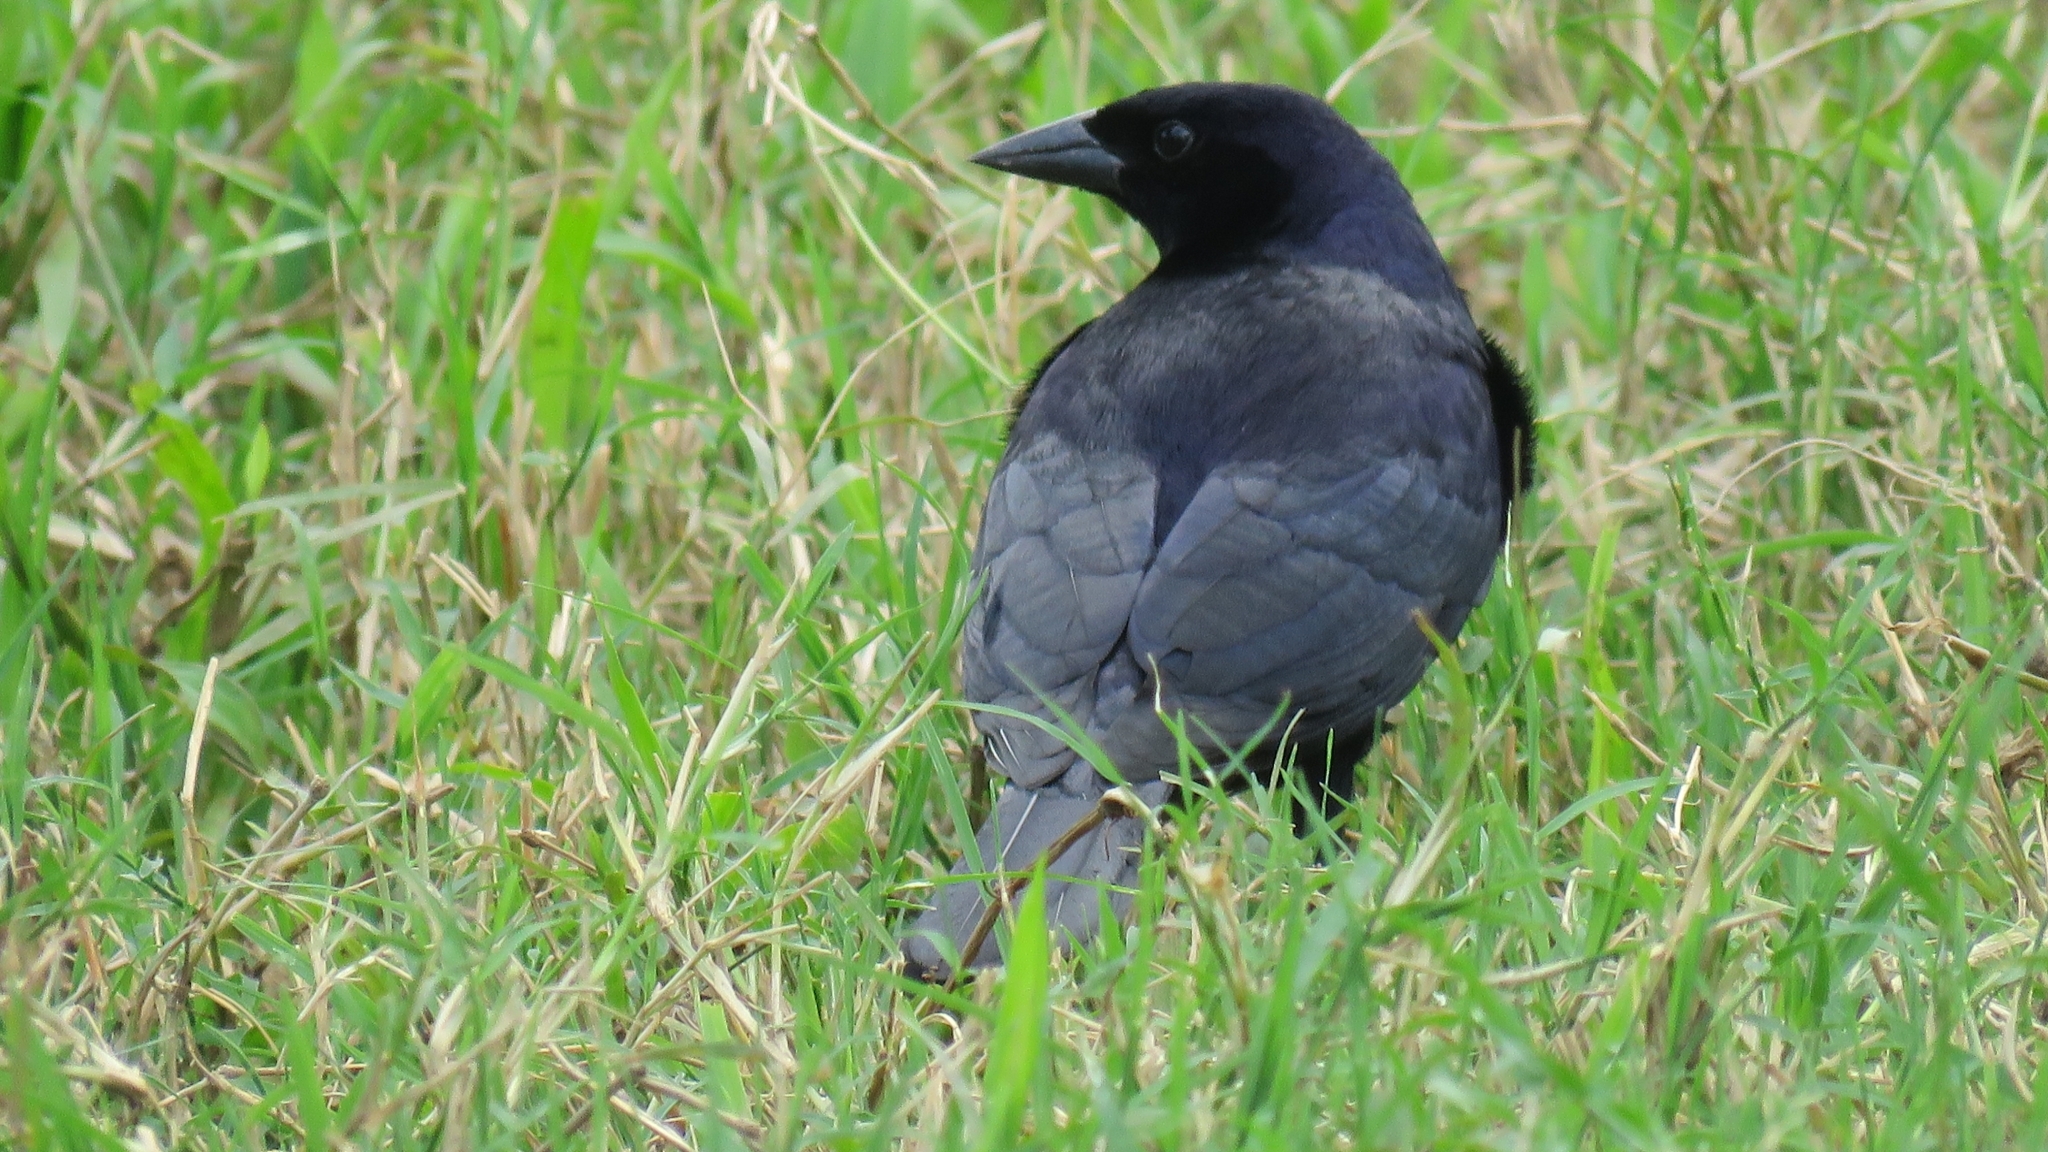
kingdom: Animalia
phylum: Chordata
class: Aves
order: Passeriformes
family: Icteridae
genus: Molothrus
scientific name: Molothrus bonariensis
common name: Shiny cowbird
